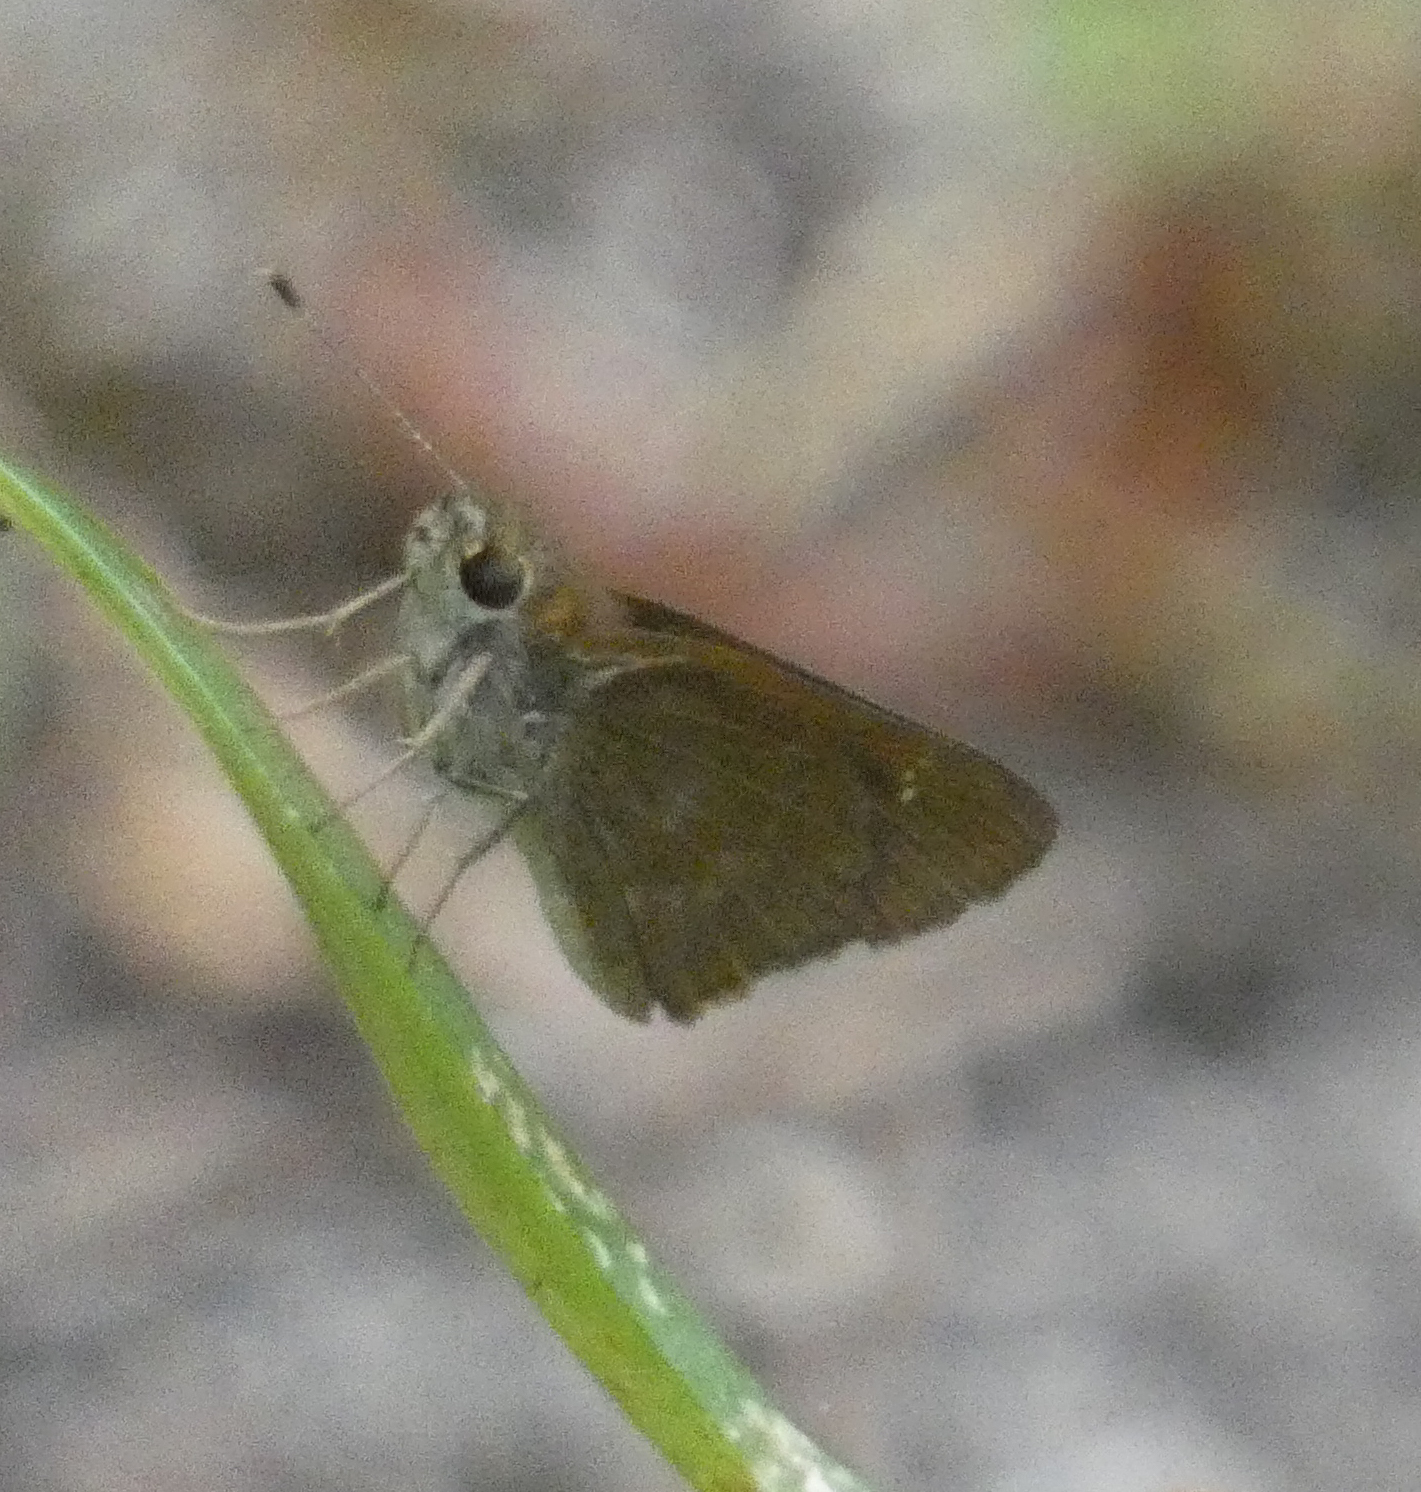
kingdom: Animalia
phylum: Arthropoda
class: Insecta
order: Lepidoptera
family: Hesperiidae
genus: Cymaenes
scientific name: Cymaenes tripunctus
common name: Dingy dotted skipper
